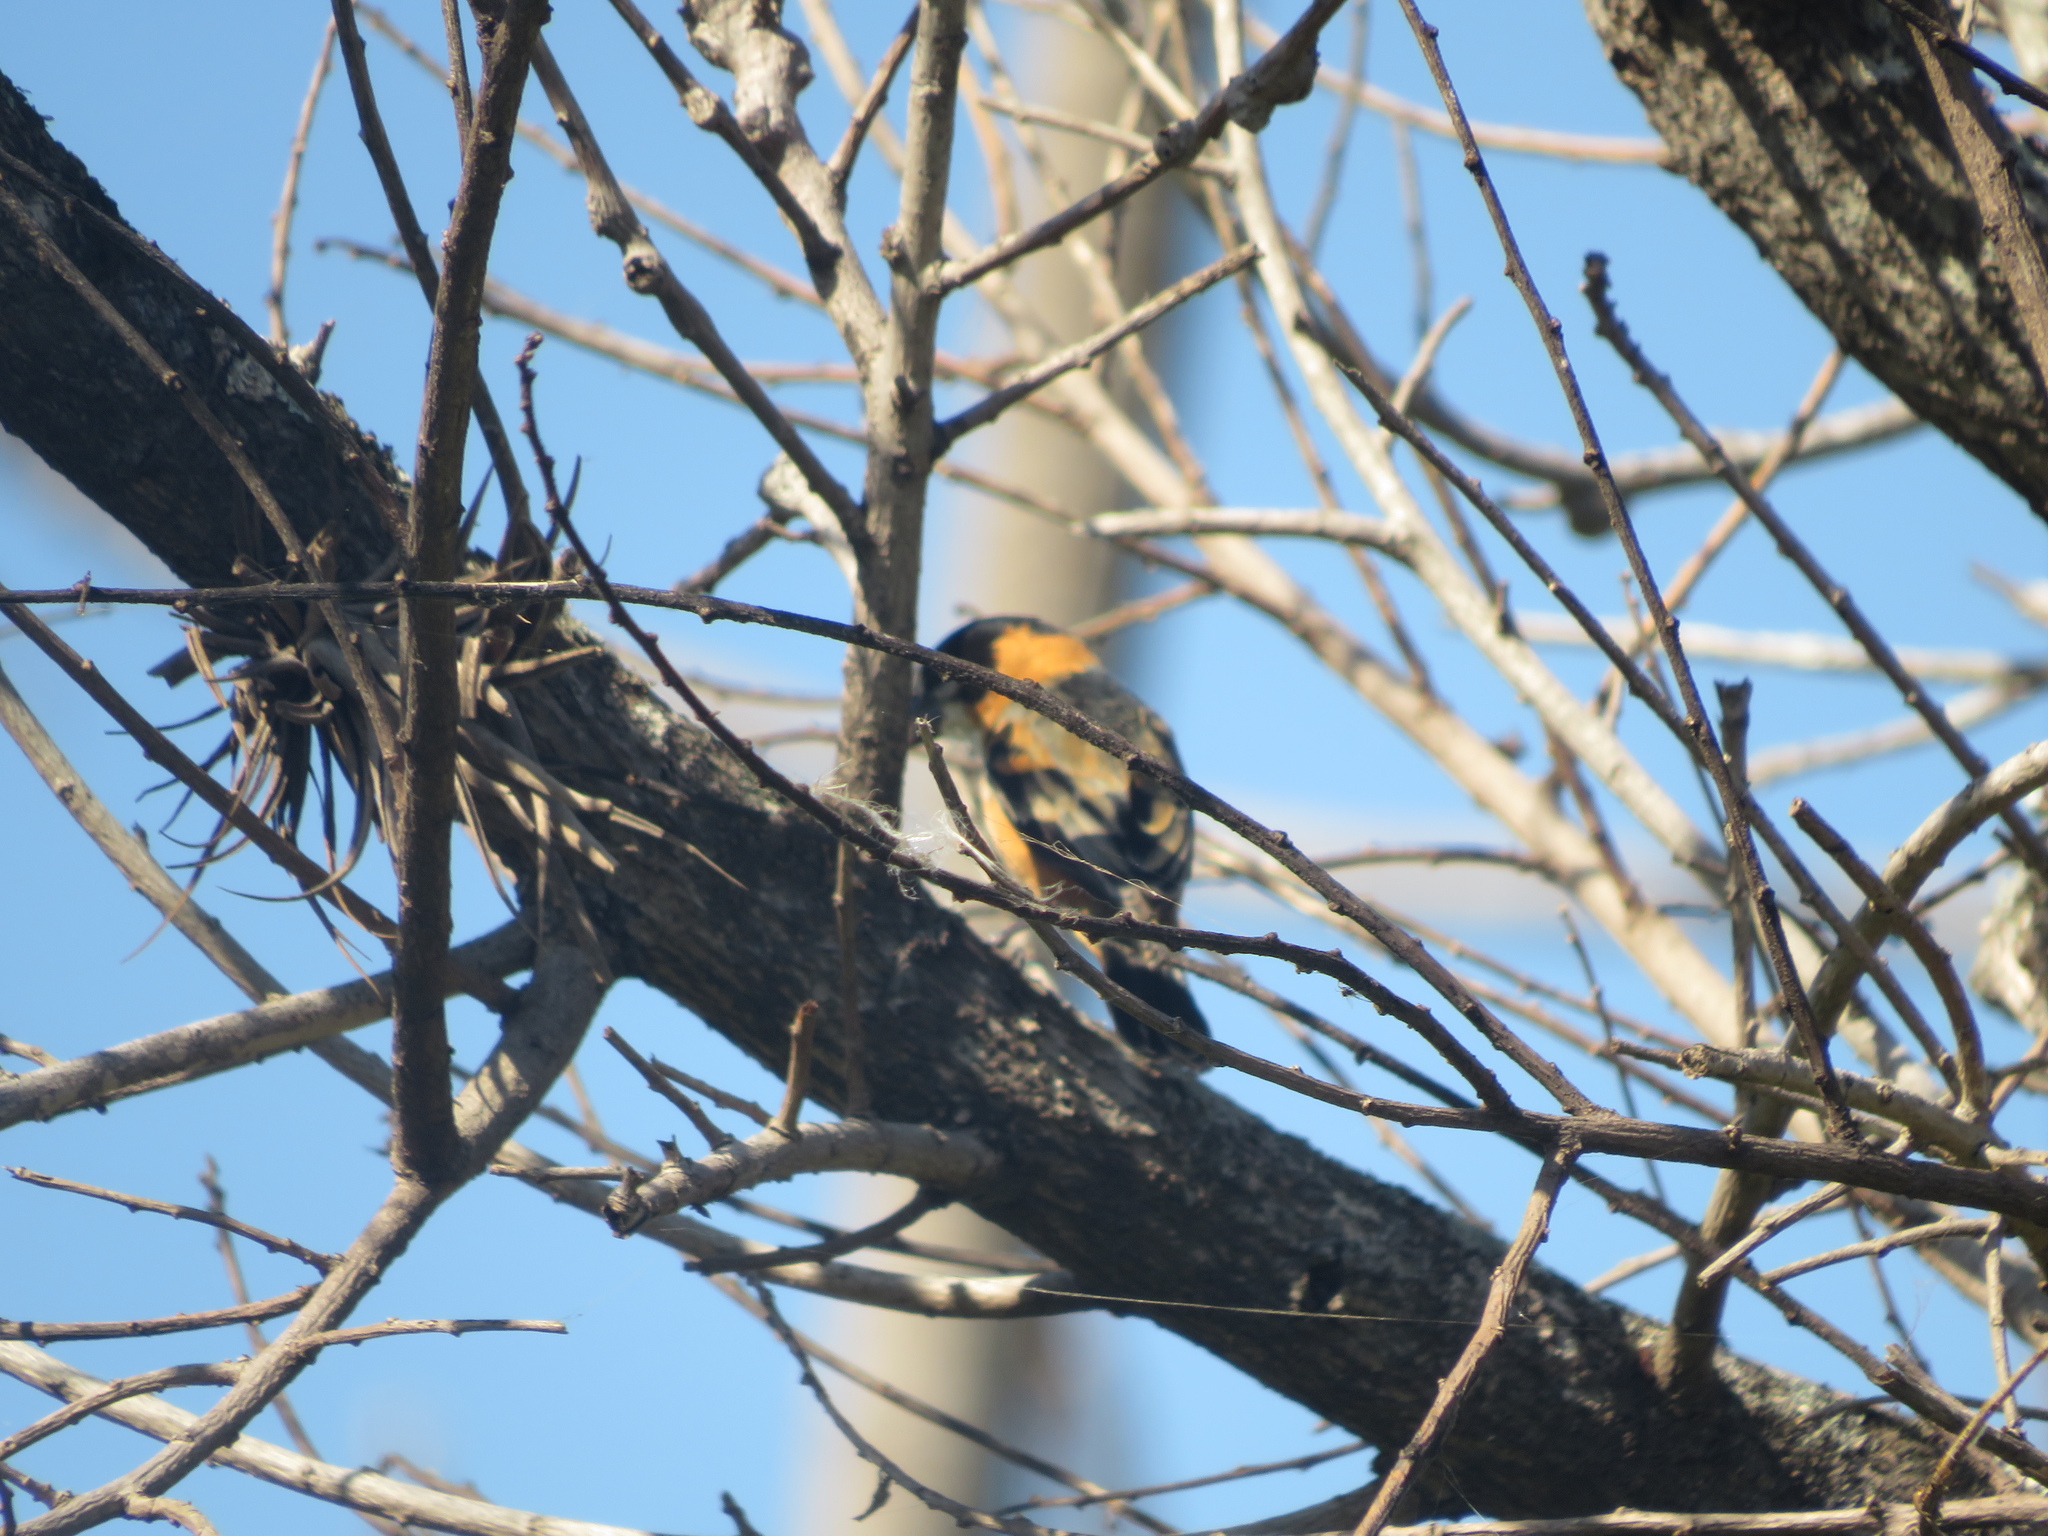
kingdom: Animalia
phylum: Chordata
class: Aves
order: Passeriformes
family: Thraupidae
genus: Sporophila
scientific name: Sporophila collaris
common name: Rusty-collared seedeater
